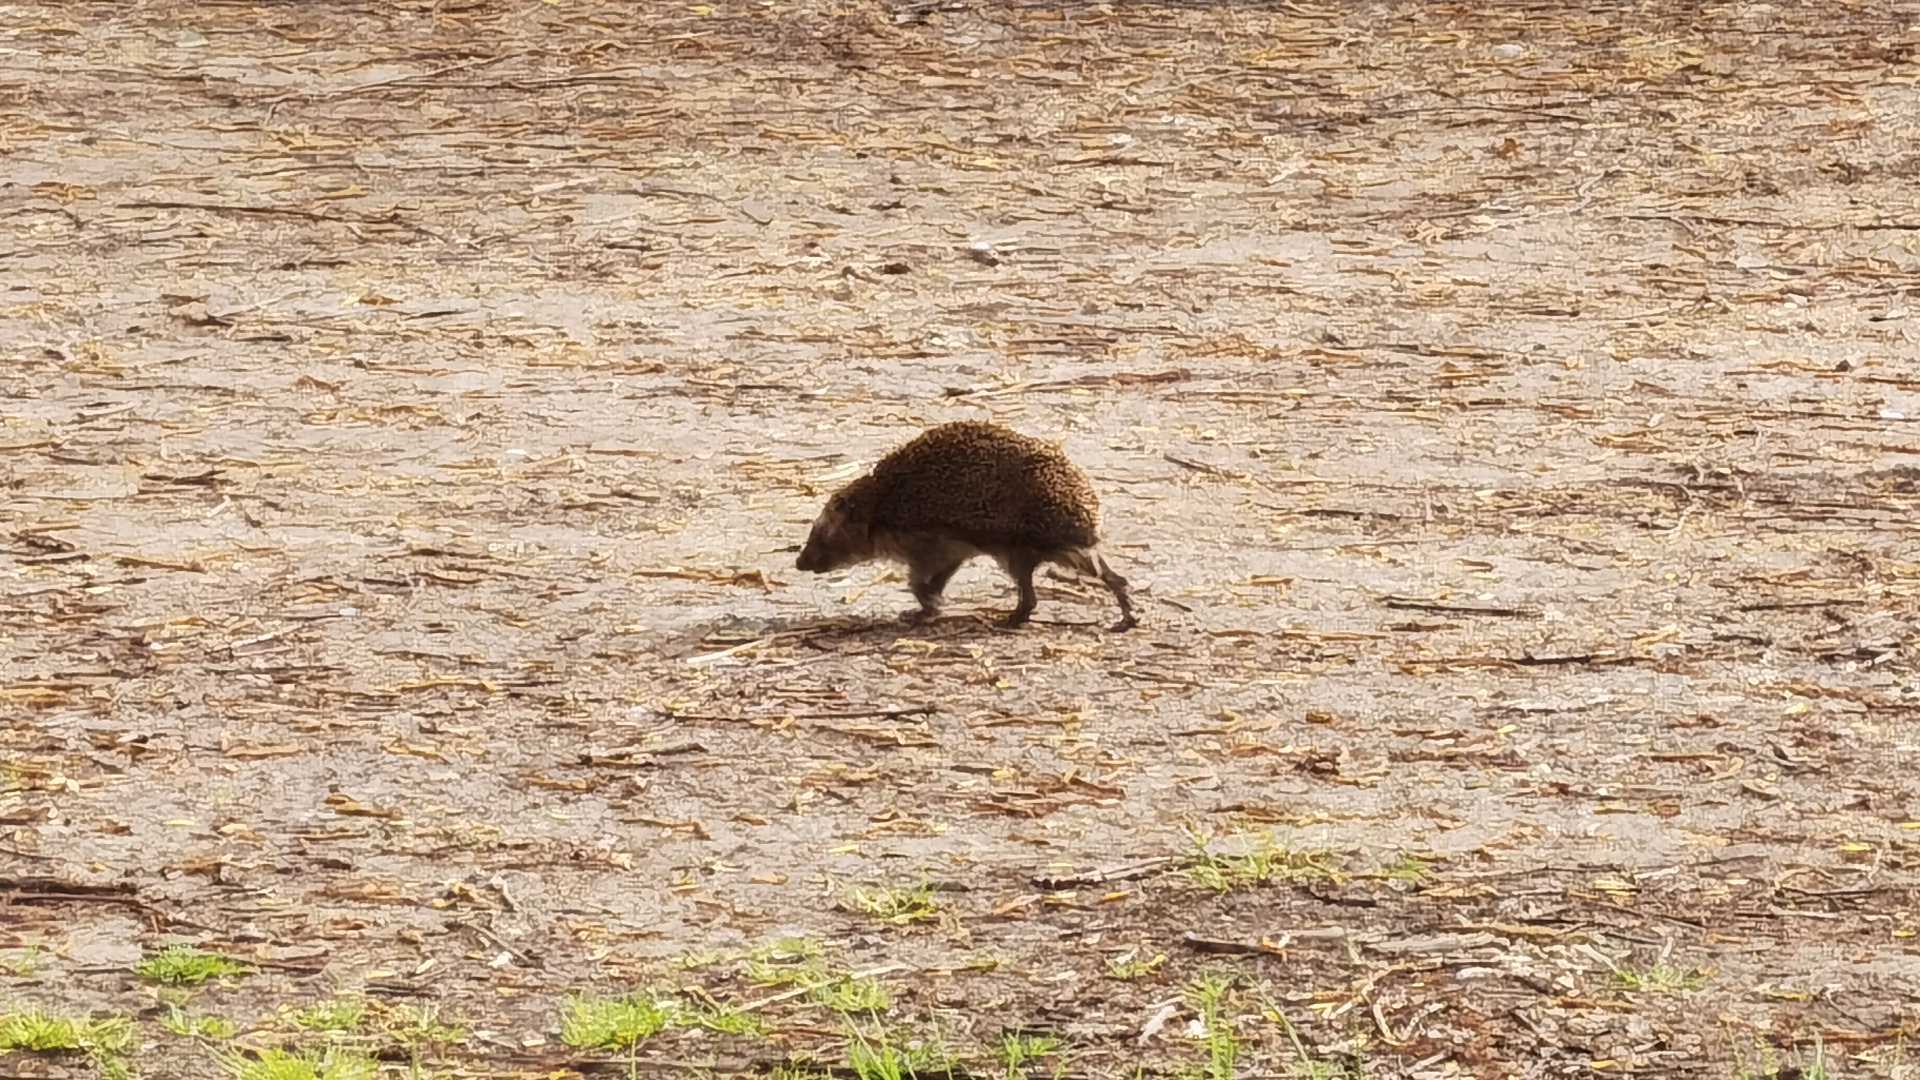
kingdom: Animalia
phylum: Chordata
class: Mammalia
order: Erinaceomorpha
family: Erinaceidae
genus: Erinaceus
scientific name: Erinaceus europaeus
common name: West european hedgehog
